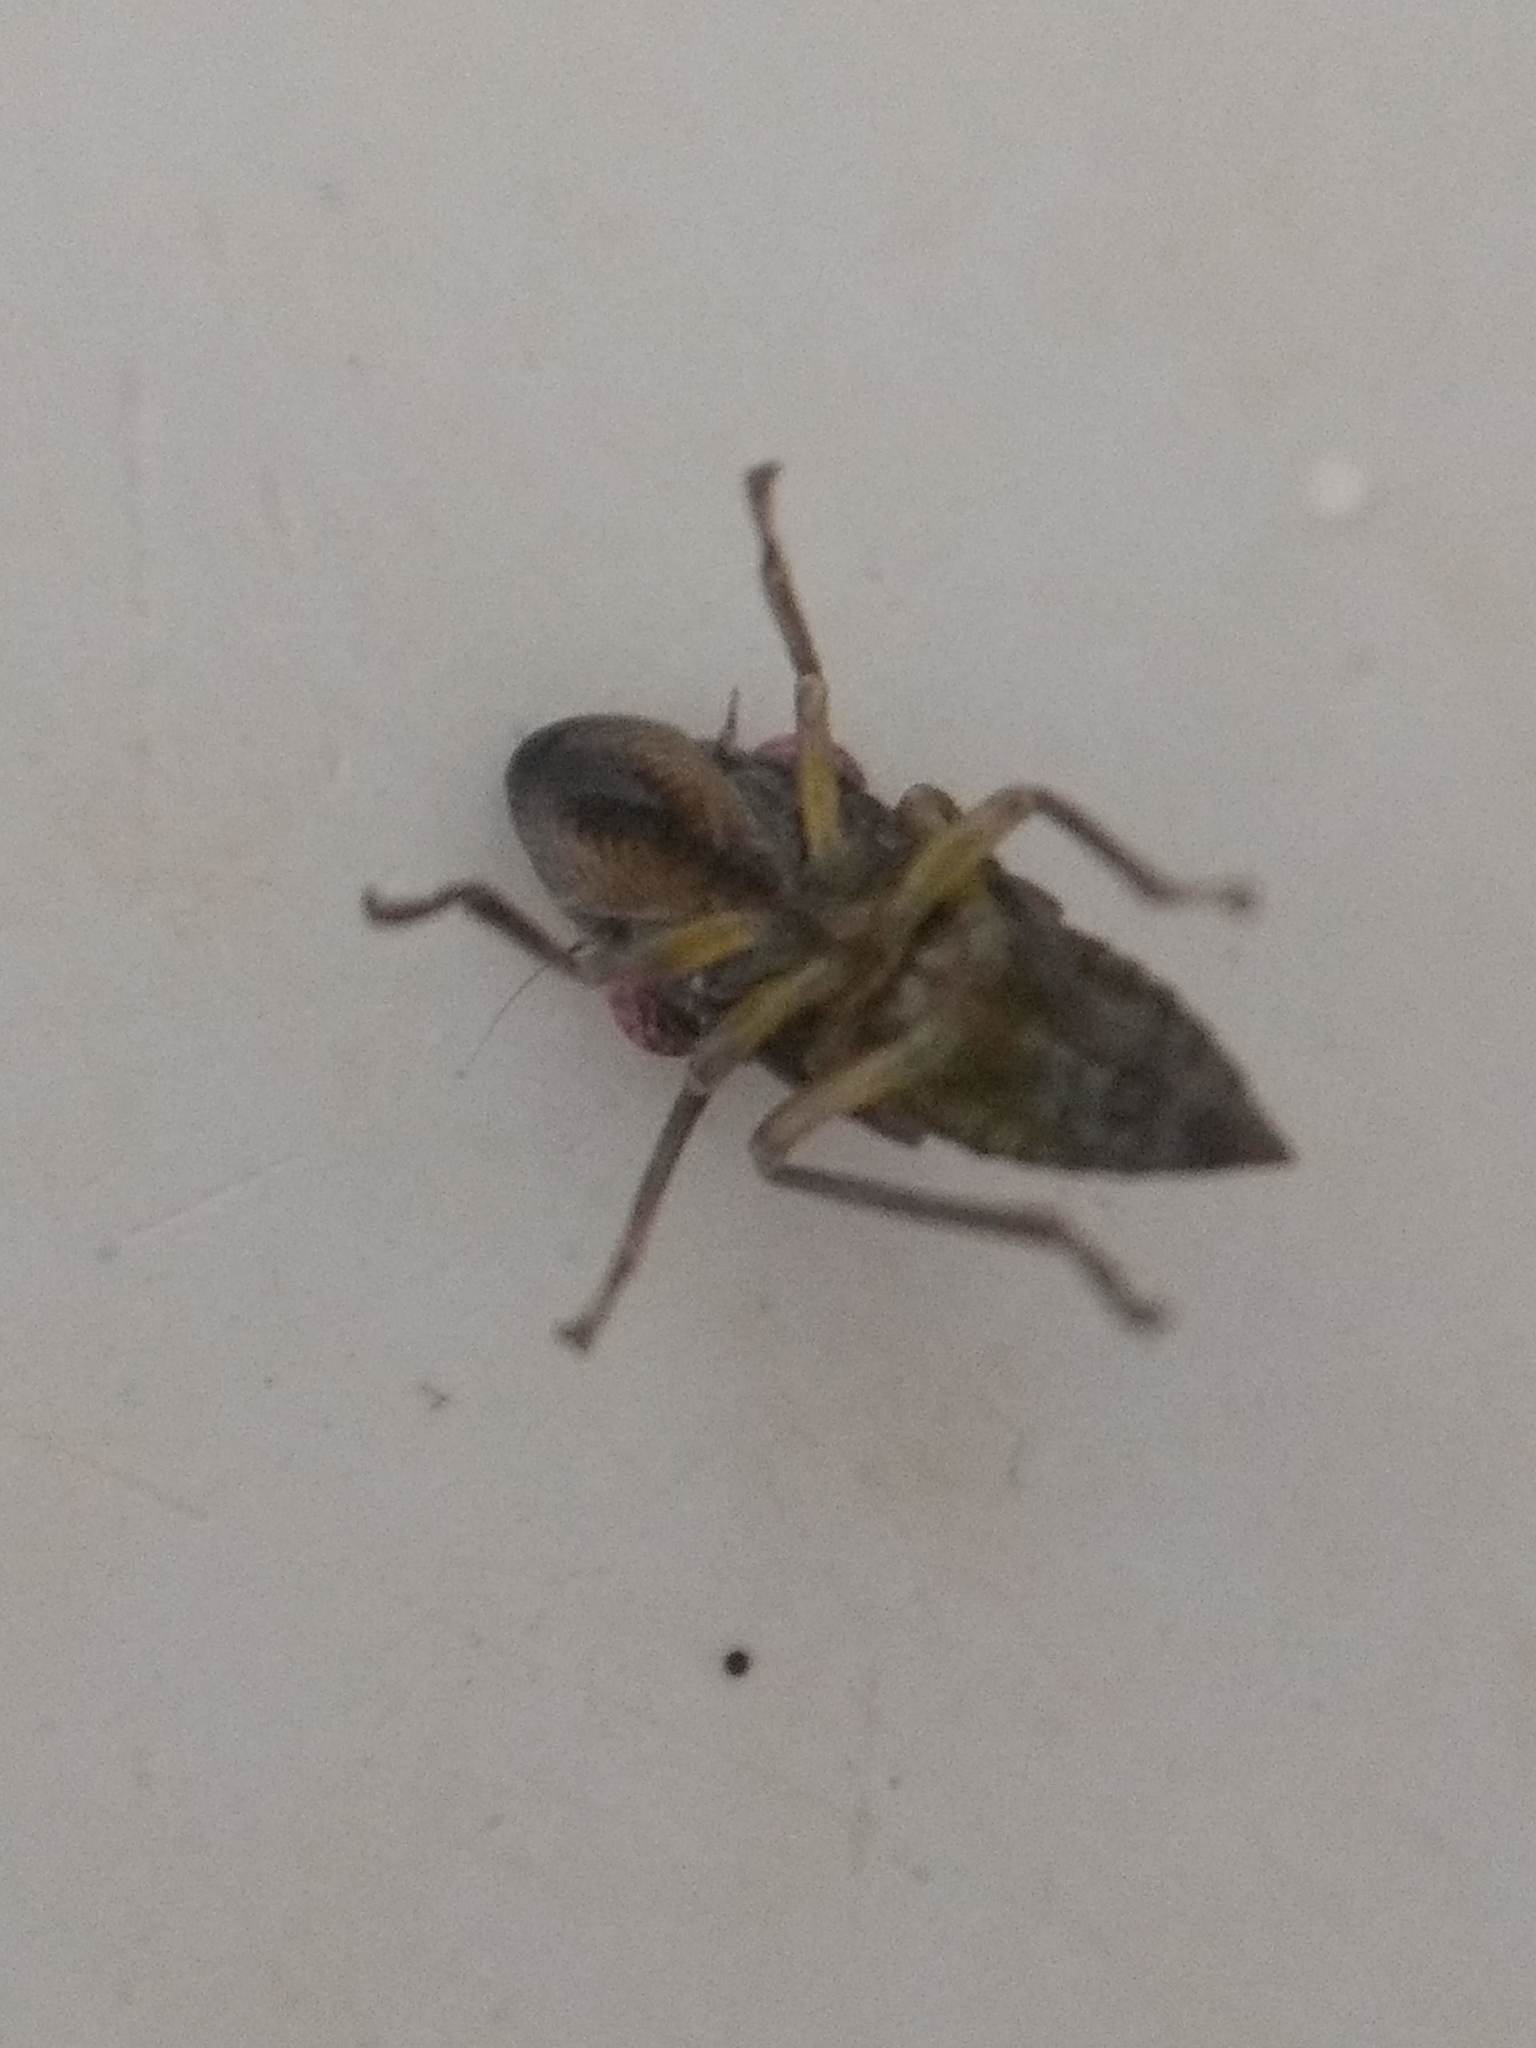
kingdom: Animalia
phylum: Arthropoda
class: Insecta
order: Hemiptera
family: Cicadellidae
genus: Homalodisca
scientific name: Homalodisca
